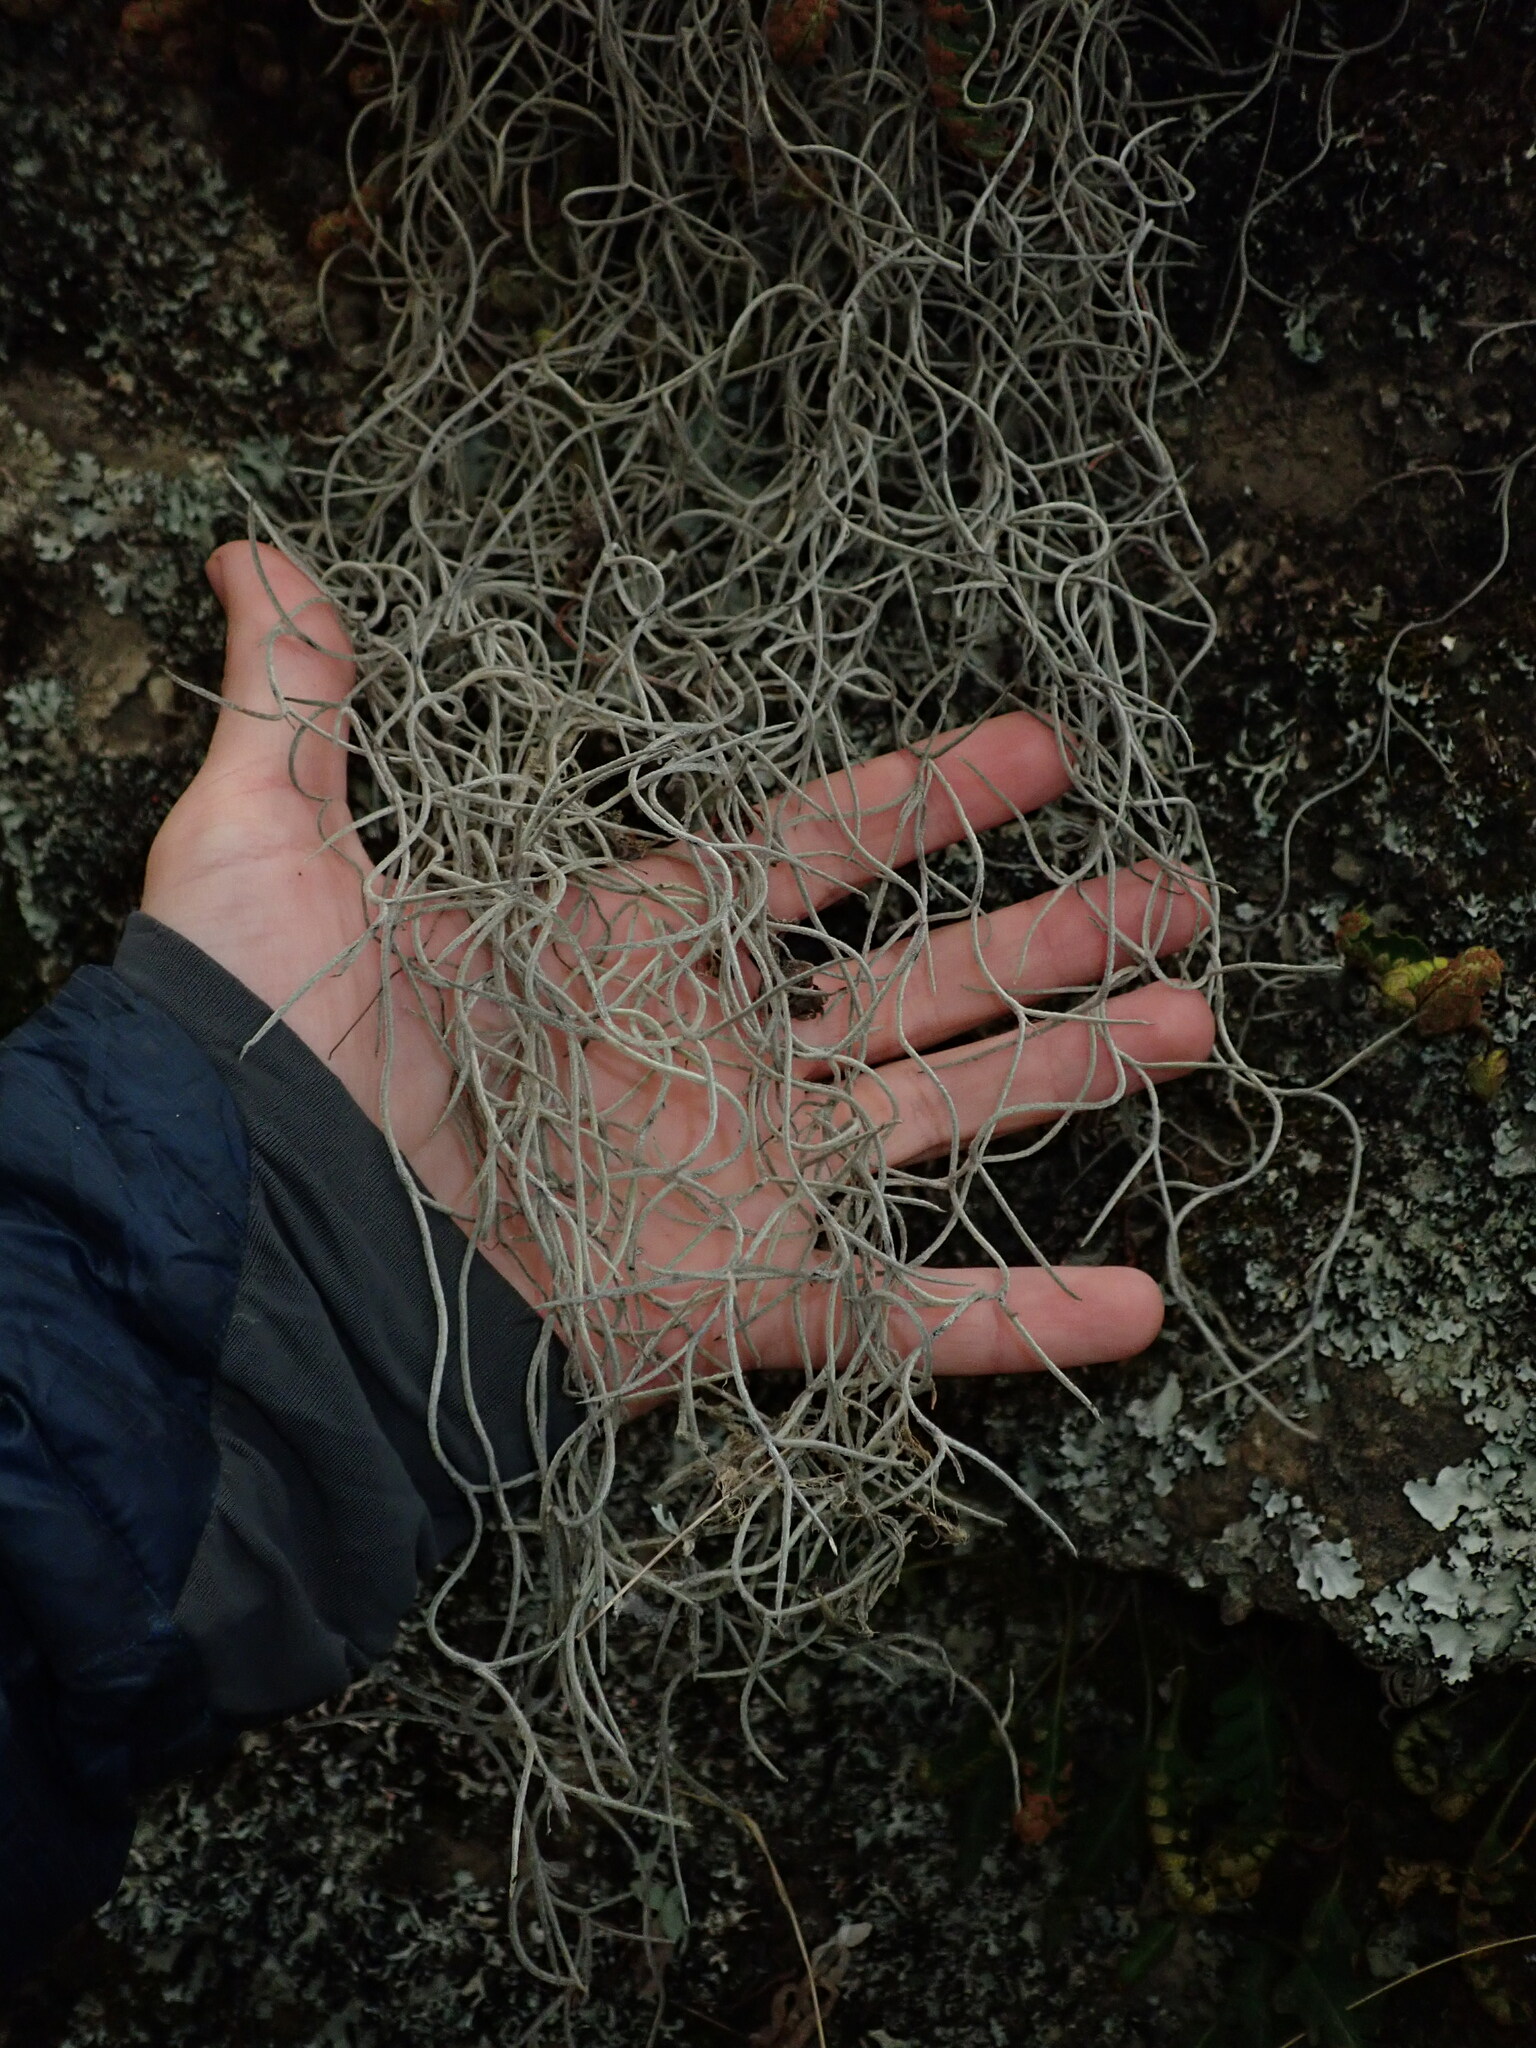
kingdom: Plantae
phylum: Tracheophyta
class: Liliopsida
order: Poales
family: Bromeliaceae
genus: Tillandsia
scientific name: Tillandsia usneoides
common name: Spanish moss
